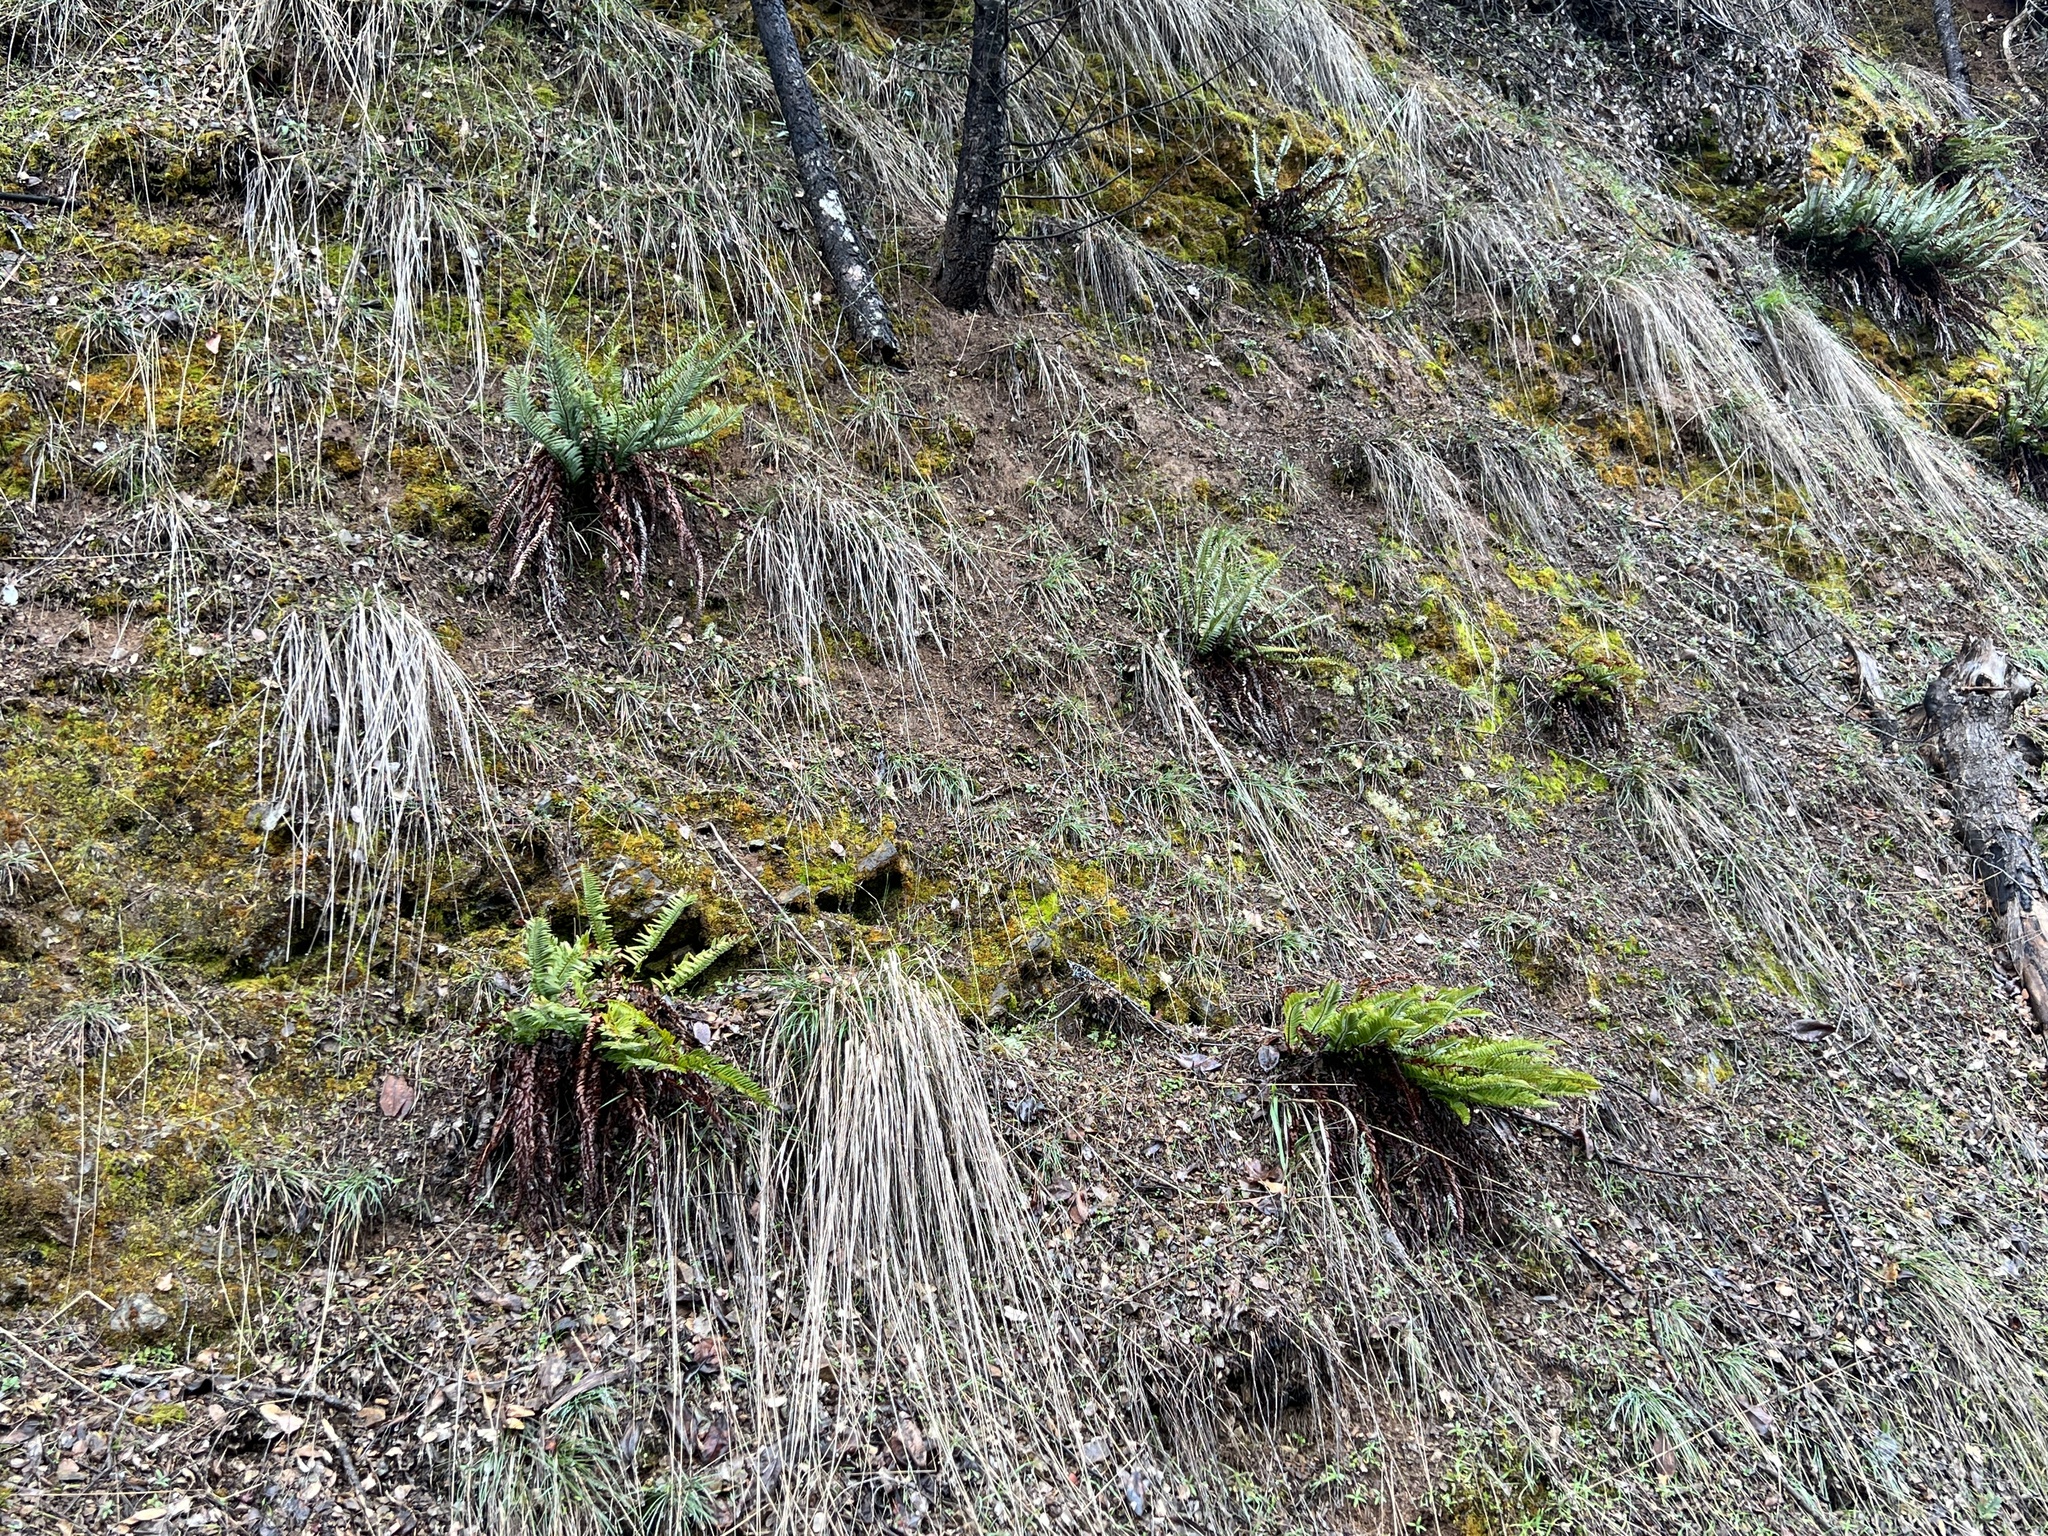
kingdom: Plantae
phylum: Tracheophyta
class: Polypodiopsida
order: Polypodiales
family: Dryopteridaceae
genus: Polystichum
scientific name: Polystichum imbricans
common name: Dwarf western sword fern
